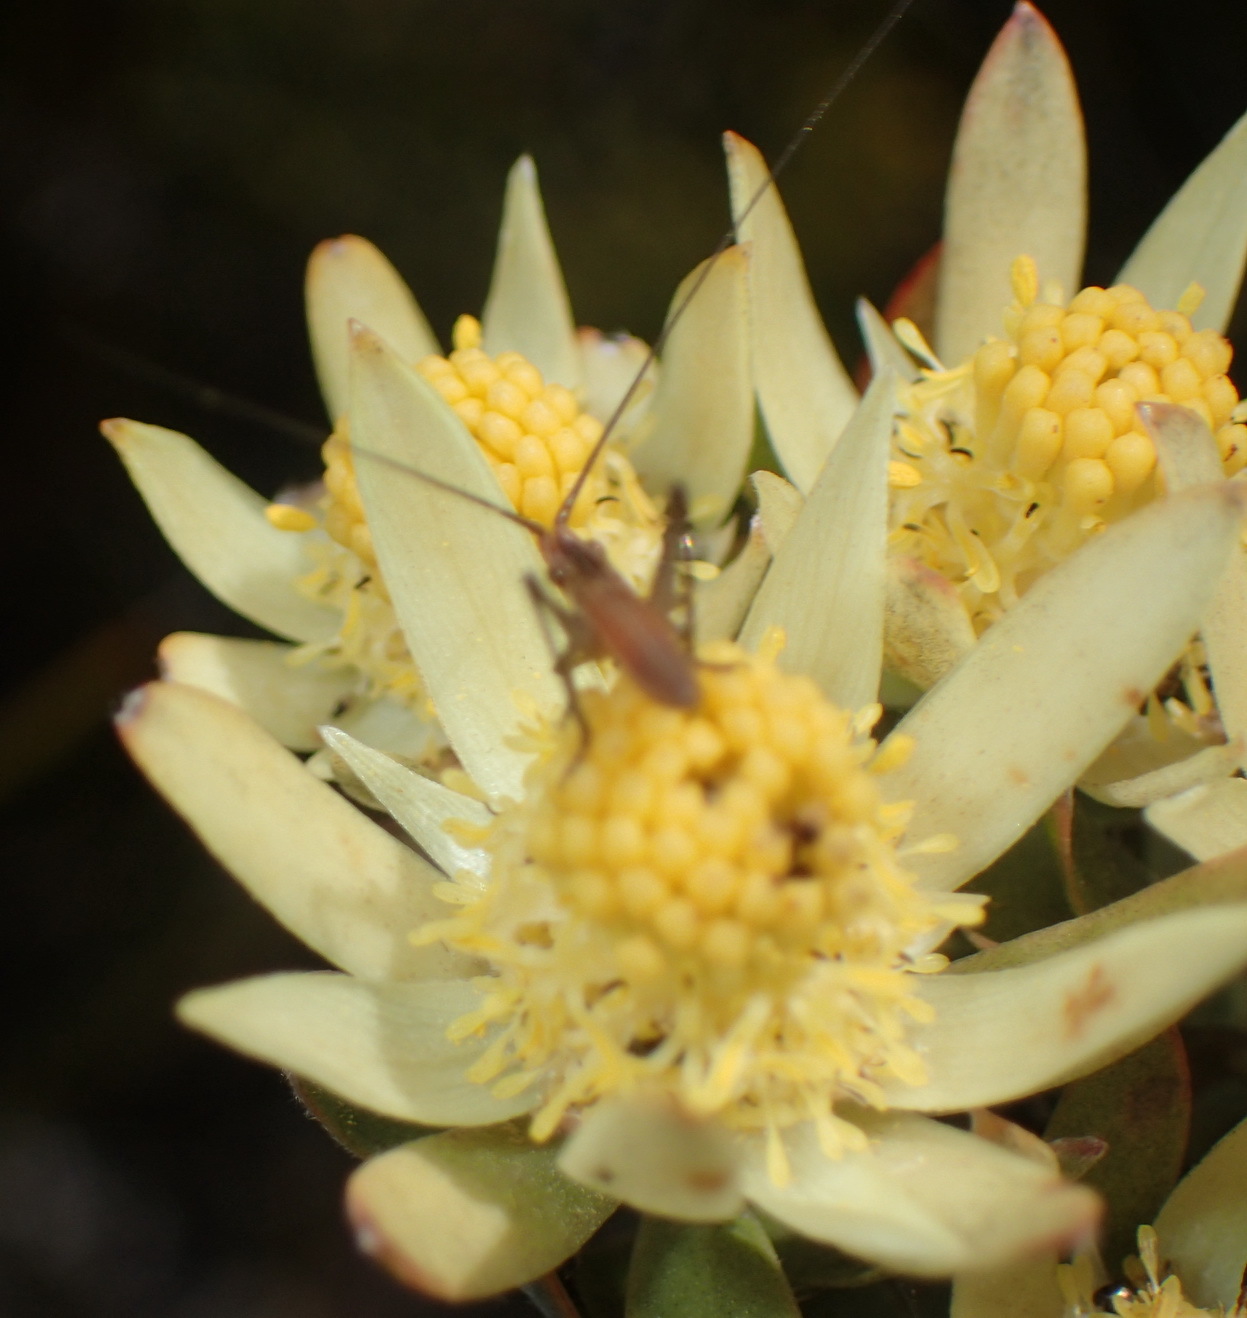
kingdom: Plantae
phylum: Tracheophyta
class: Magnoliopsida
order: Proteales
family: Proteaceae
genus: Leucadendron
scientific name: Leucadendron uliginosum
